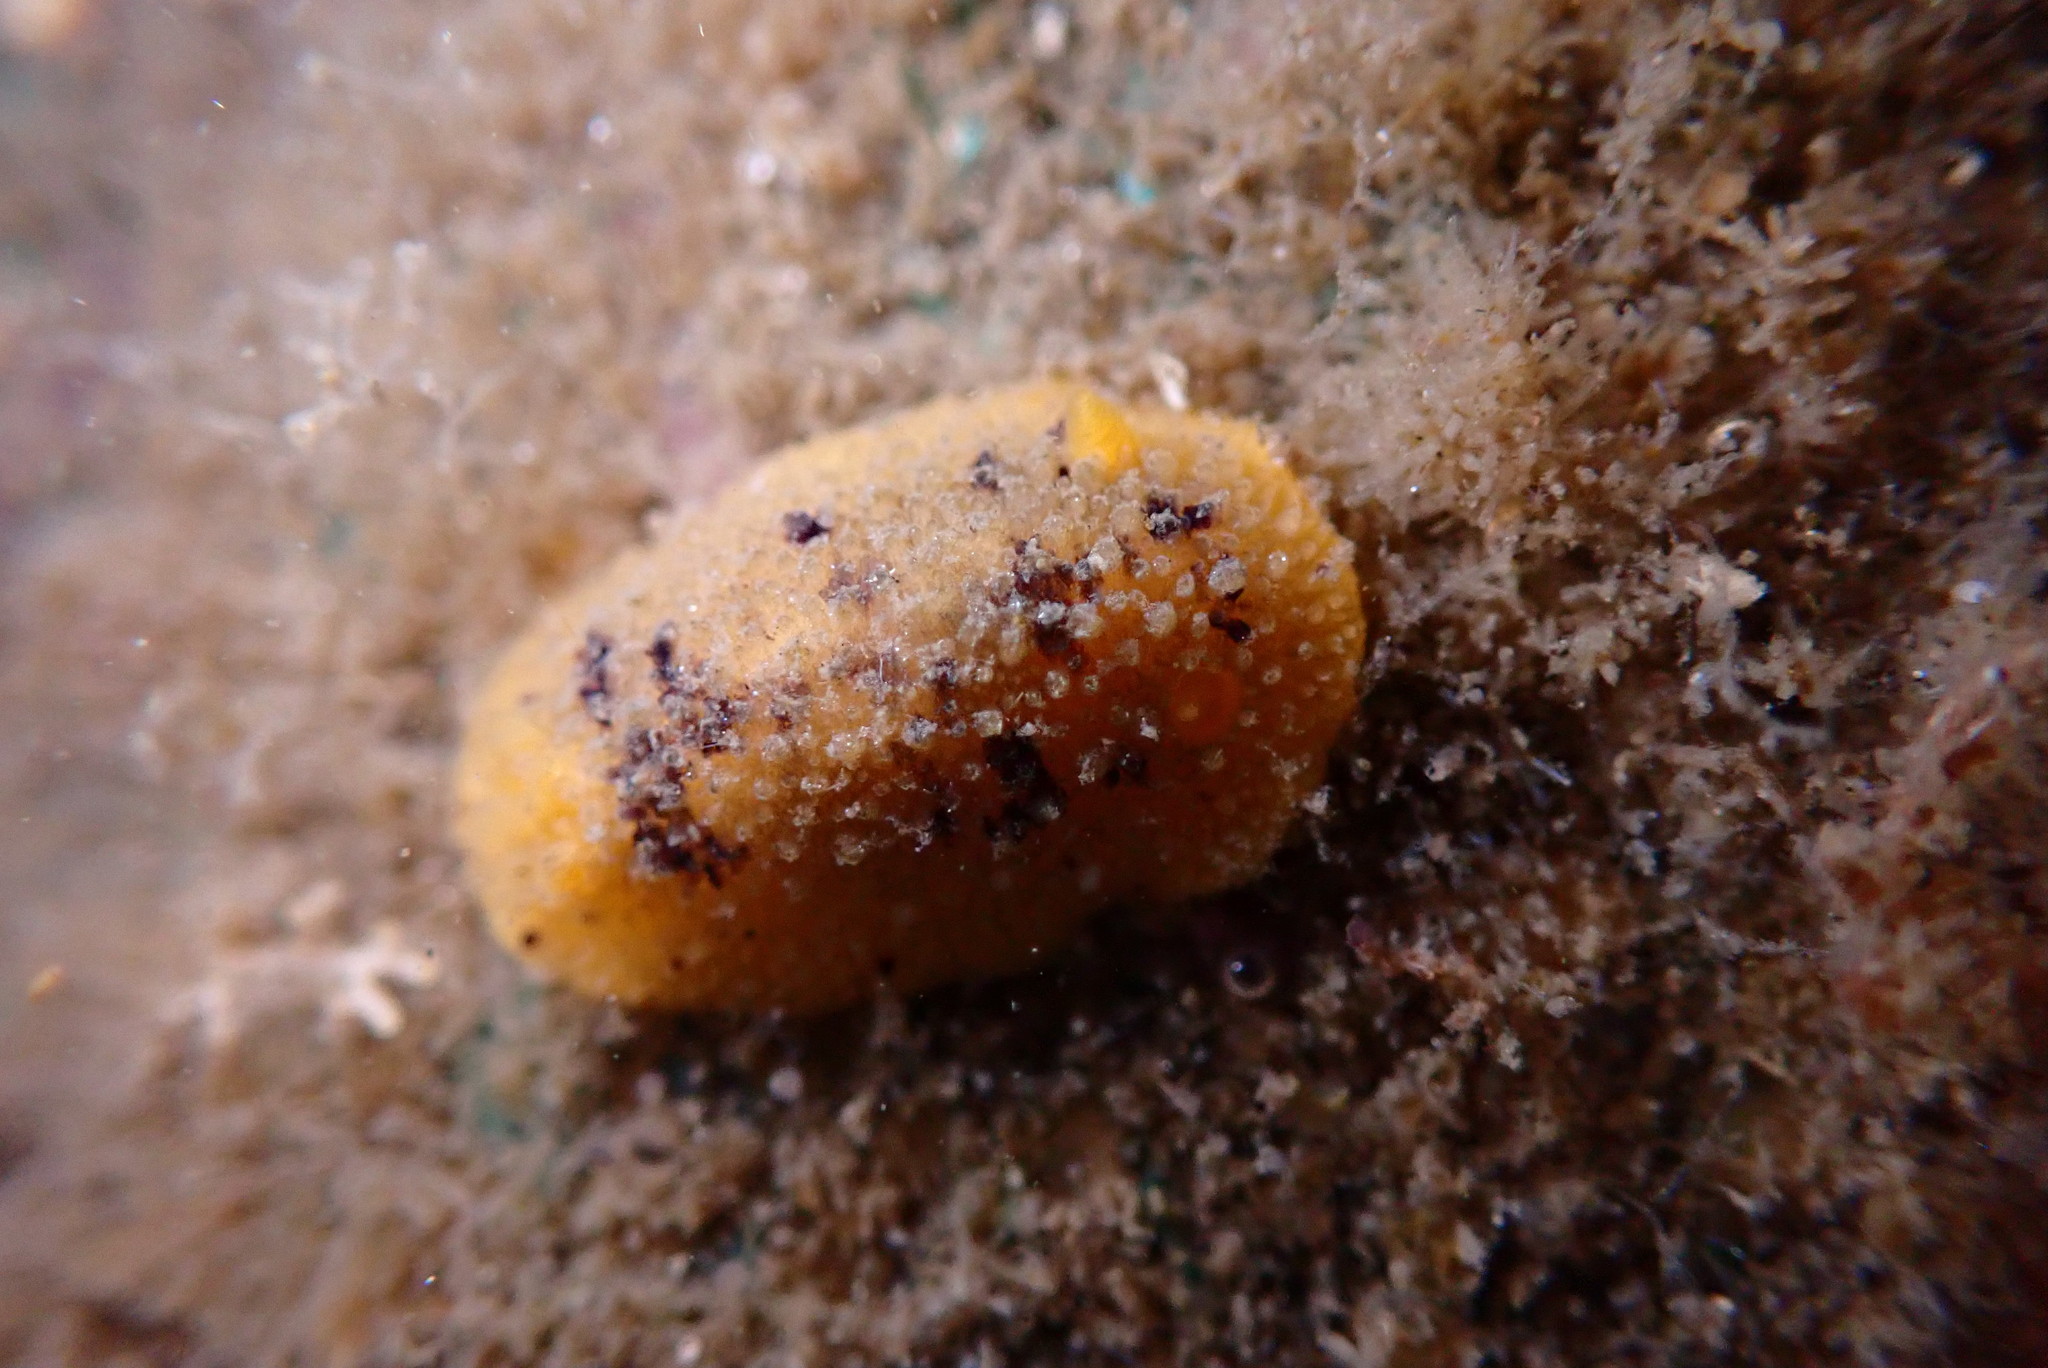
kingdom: Animalia
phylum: Mollusca
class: Gastropoda
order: Nudibranchia
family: Dorididae
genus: Doris
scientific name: Doris montereyensis
